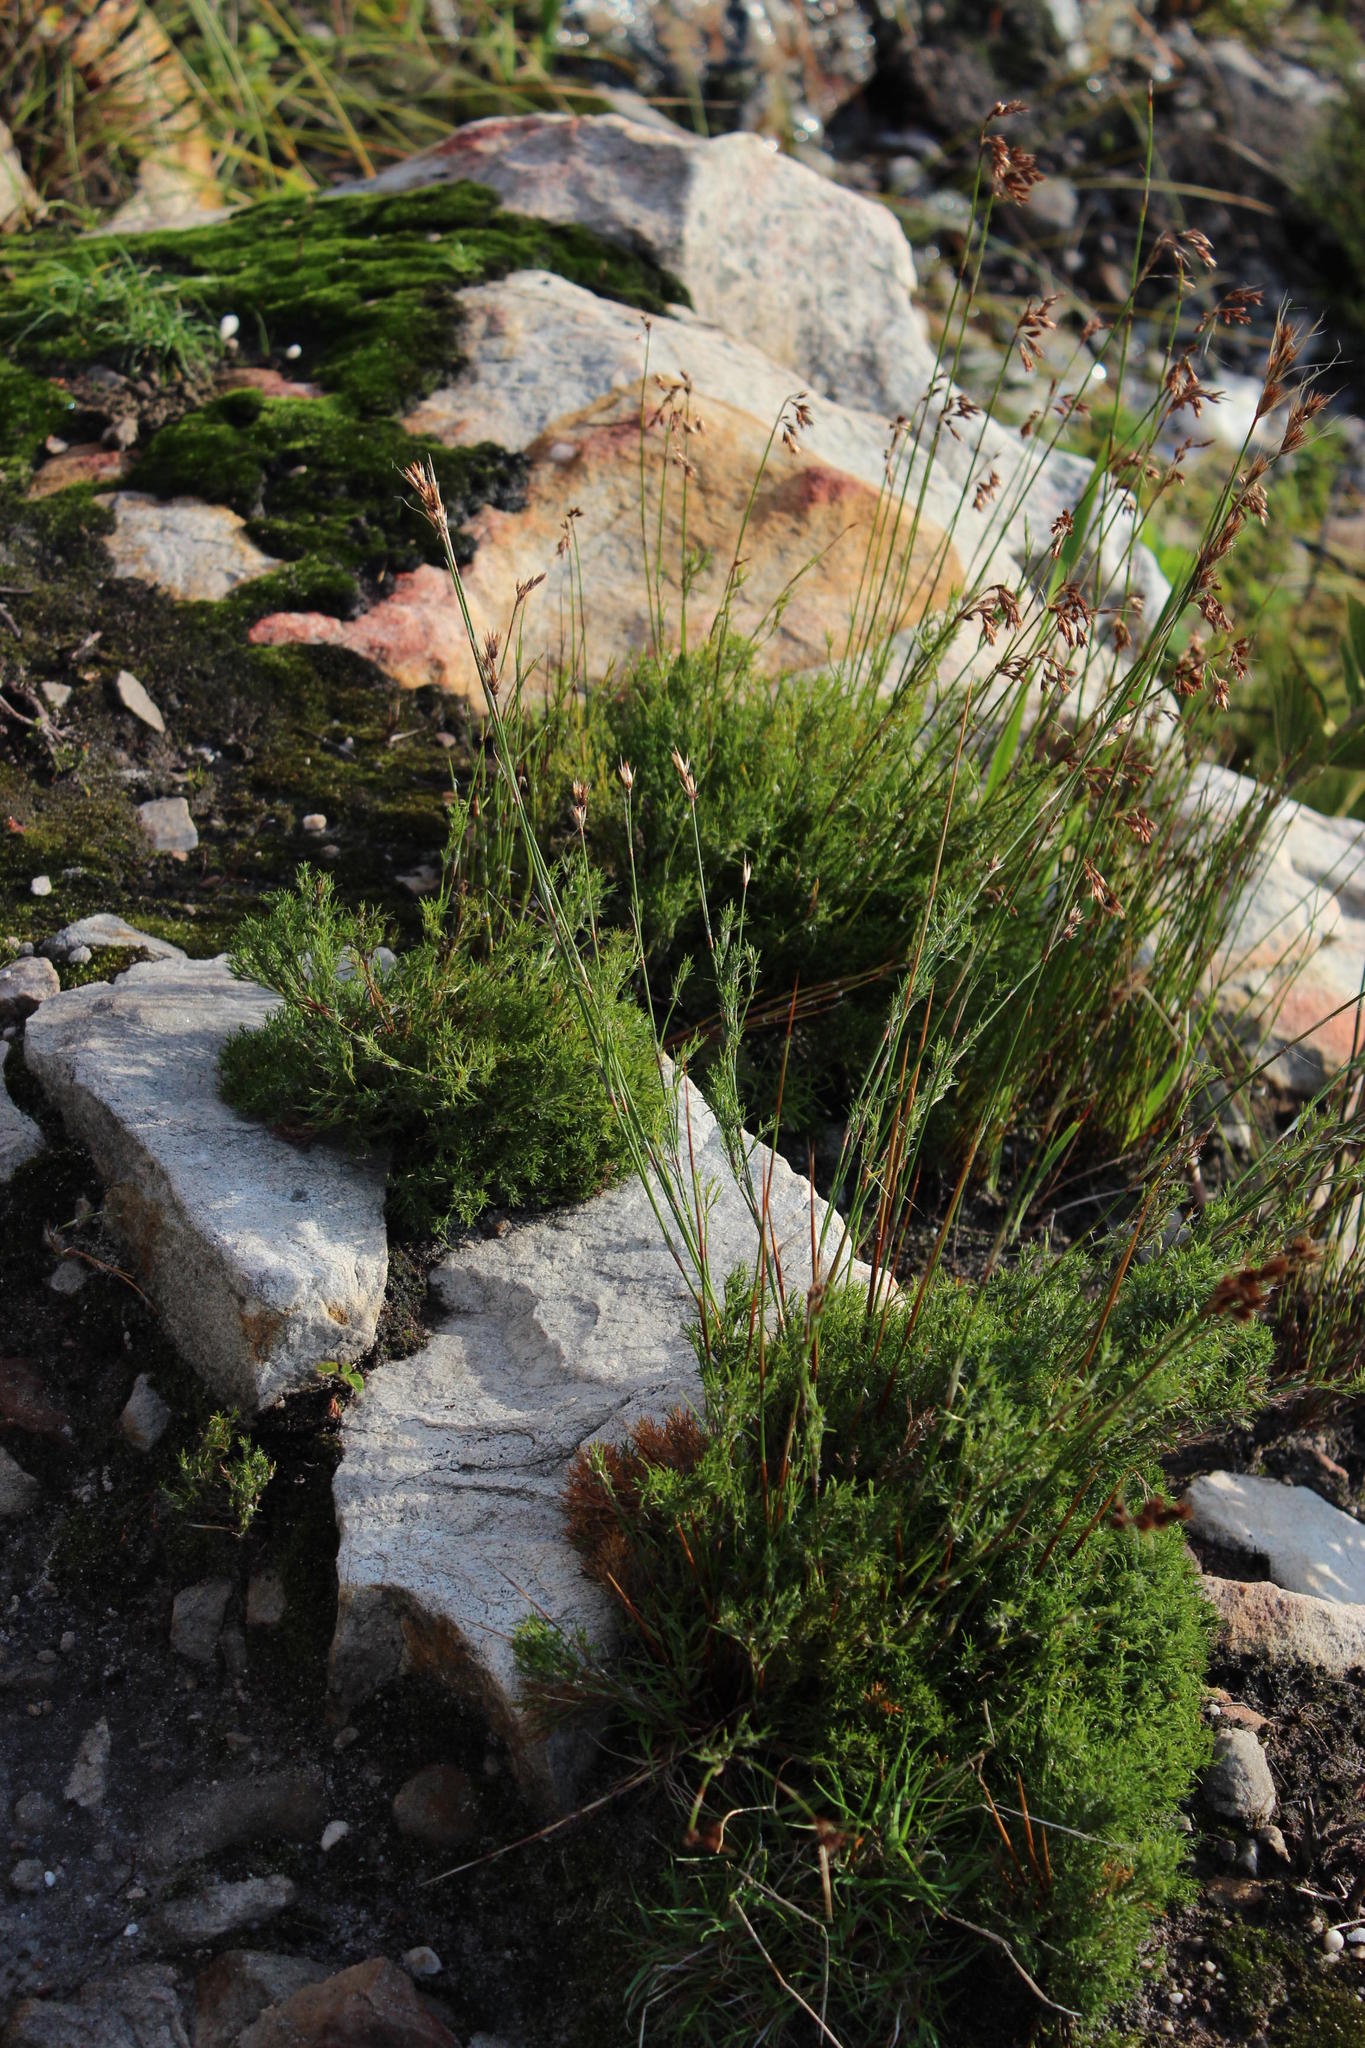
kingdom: Plantae
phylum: Tracheophyta
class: Liliopsida
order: Poales
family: Restionaceae
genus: Thamnochortus
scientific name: Thamnochortus lucens
